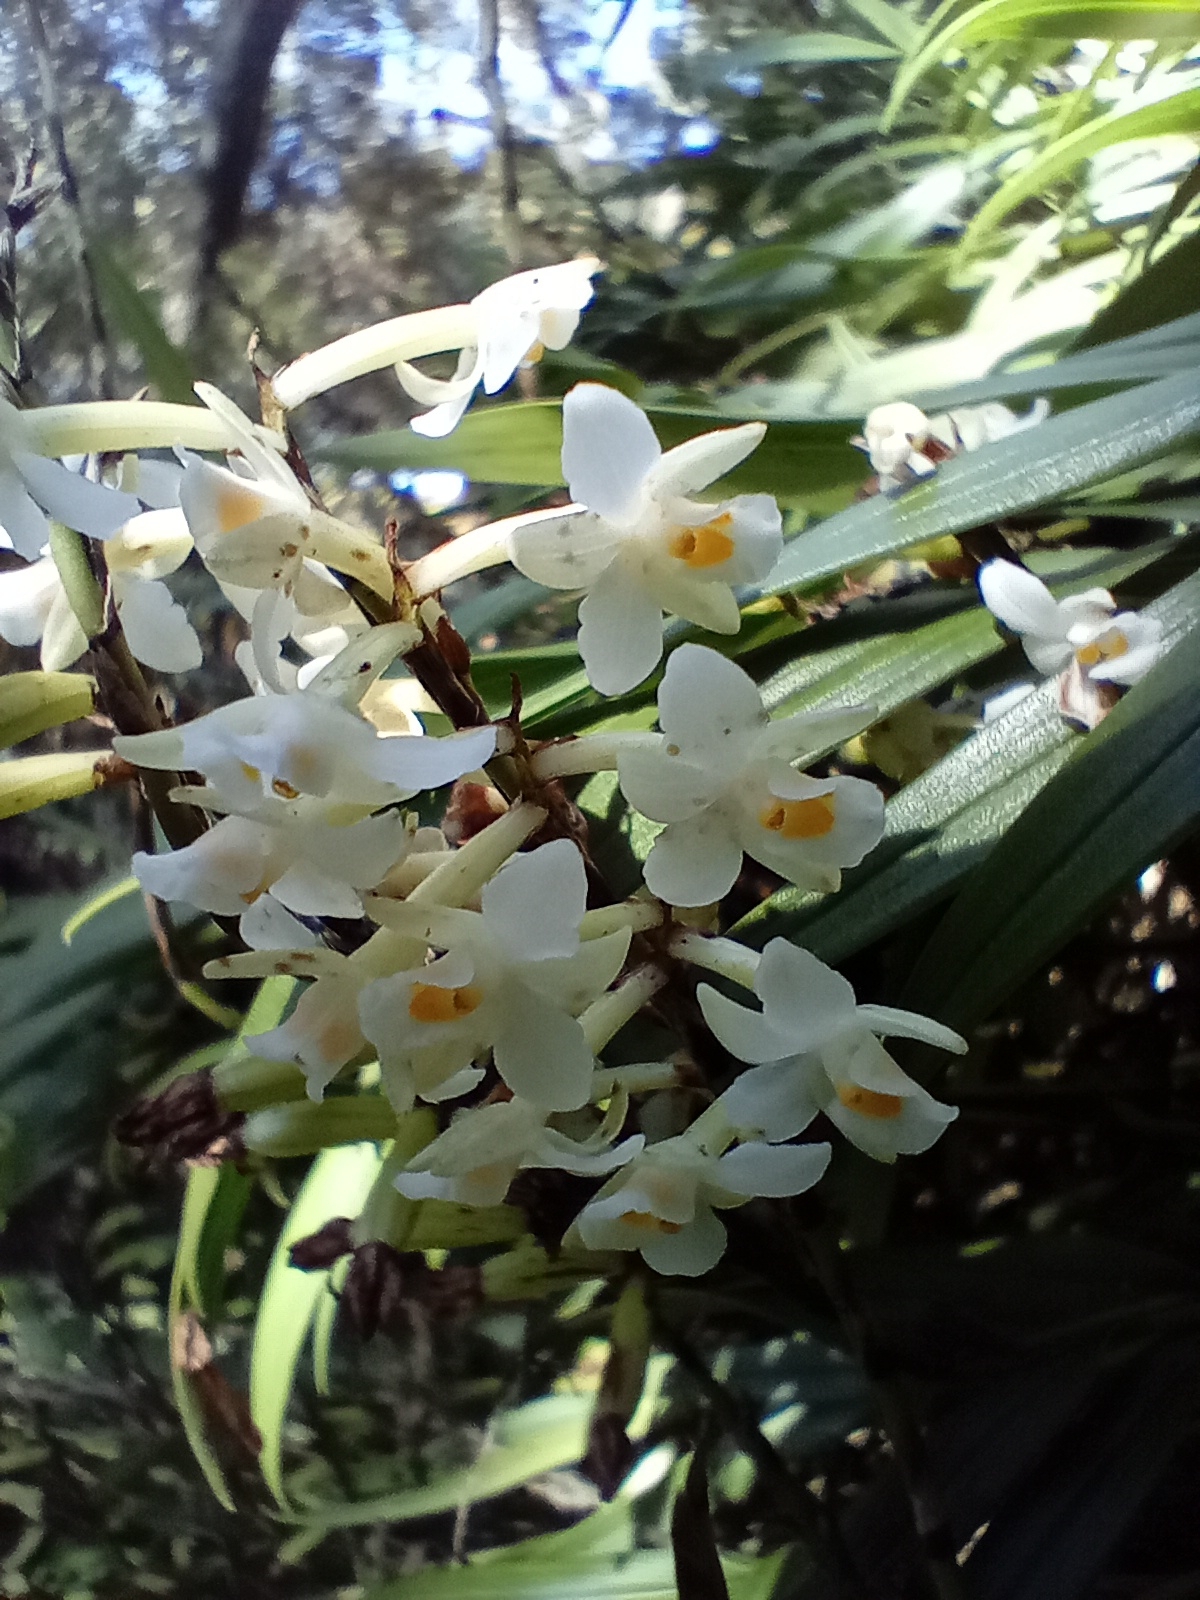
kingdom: Plantae
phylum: Tracheophyta
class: Liliopsida
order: Asparagales
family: Orchidaceae
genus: Earina
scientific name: Earina autumnalis
